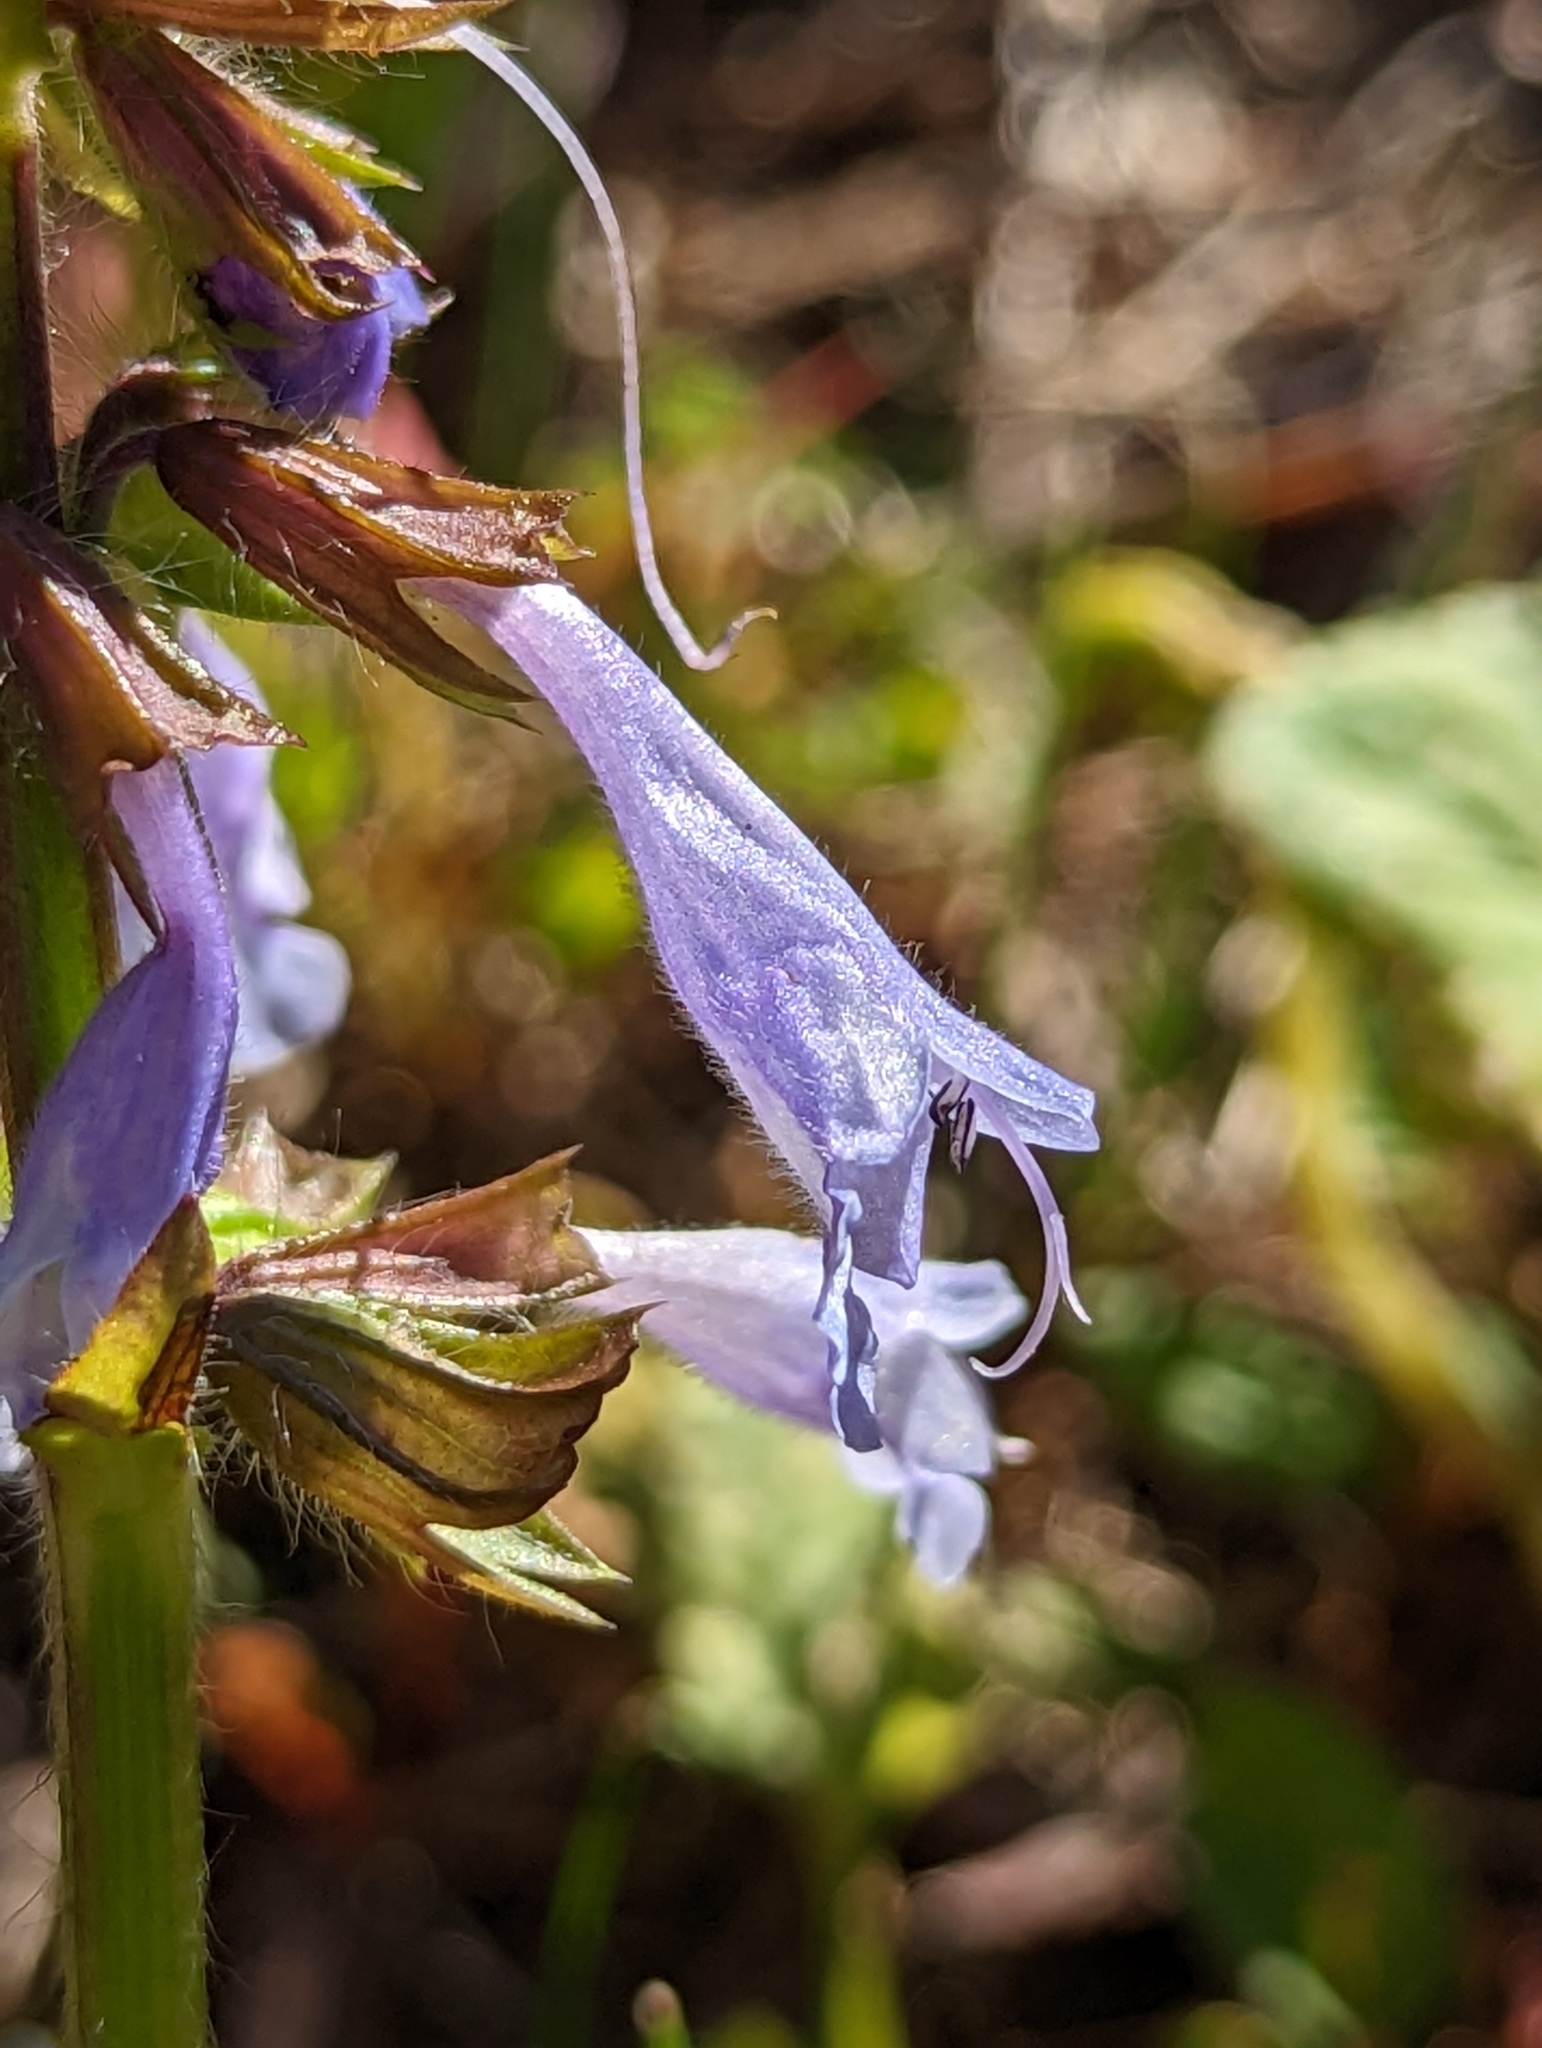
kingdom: Plantae
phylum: Tracheophyta
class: Magnoliopsida
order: Lamiales
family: Lamiaceae
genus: Salvia
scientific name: Salvia lyrata
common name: Cancerweed
